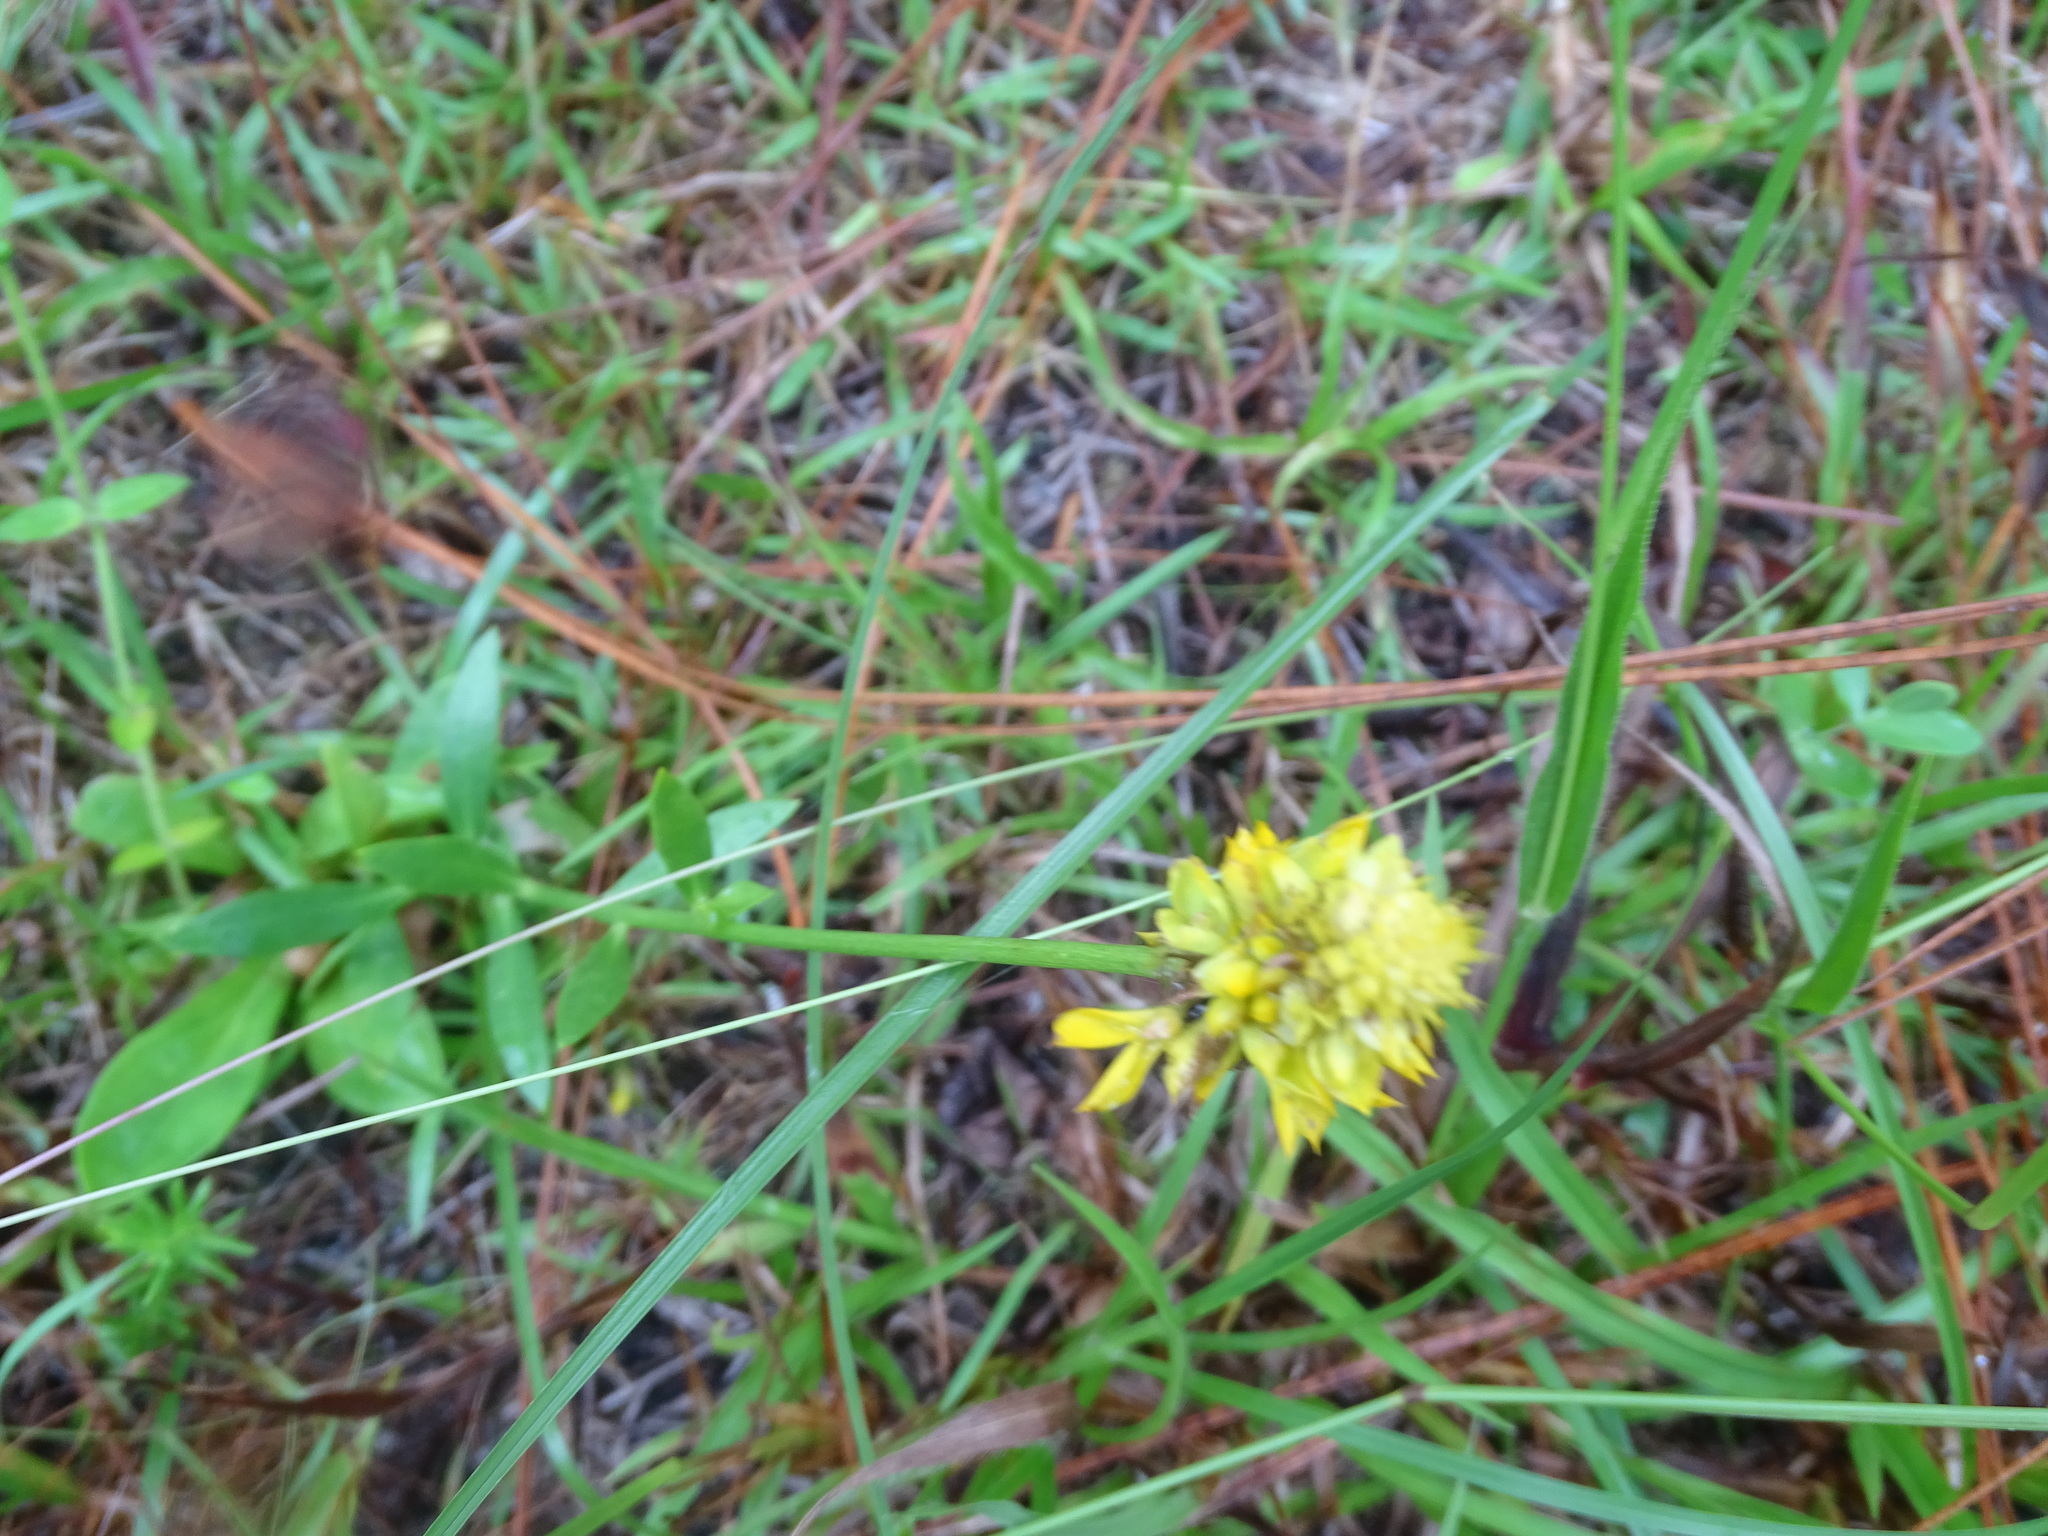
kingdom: Plantae
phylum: Tracheophyta
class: Magnoliopsida
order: Fabales
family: Polygalaceae
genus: Polygala
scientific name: Polygala rugelii
